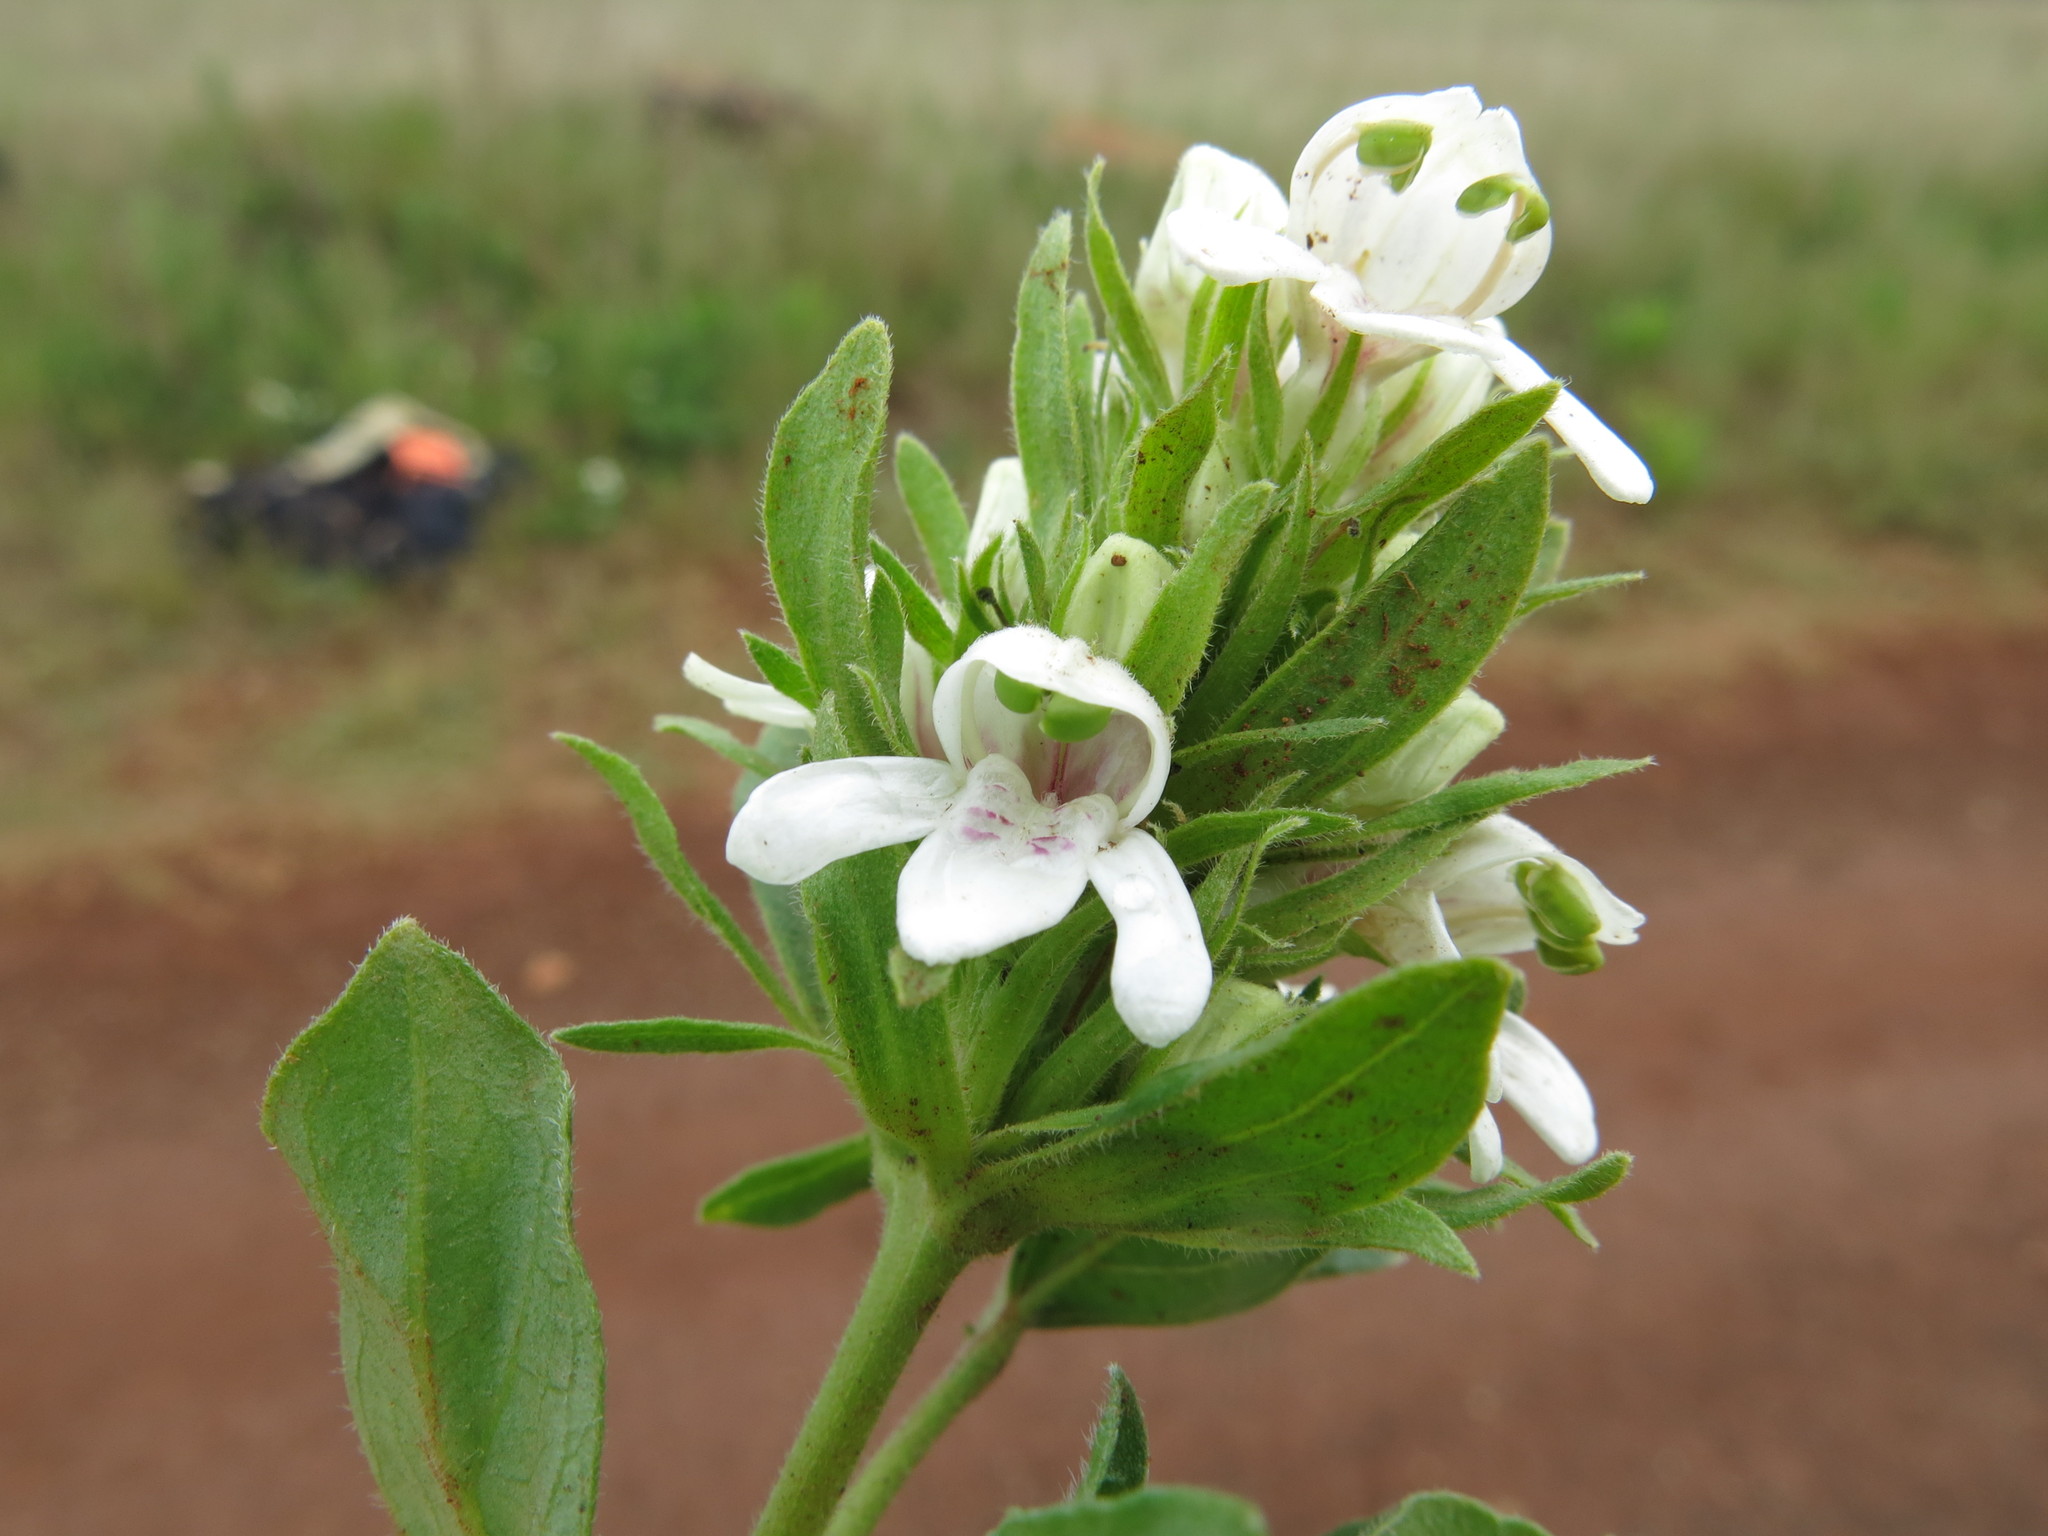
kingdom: Plantae
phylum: Tracheophyta
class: Magnoliopsida
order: Lamiales
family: Acanthaceae
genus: Justicia
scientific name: Justicia andromeda
